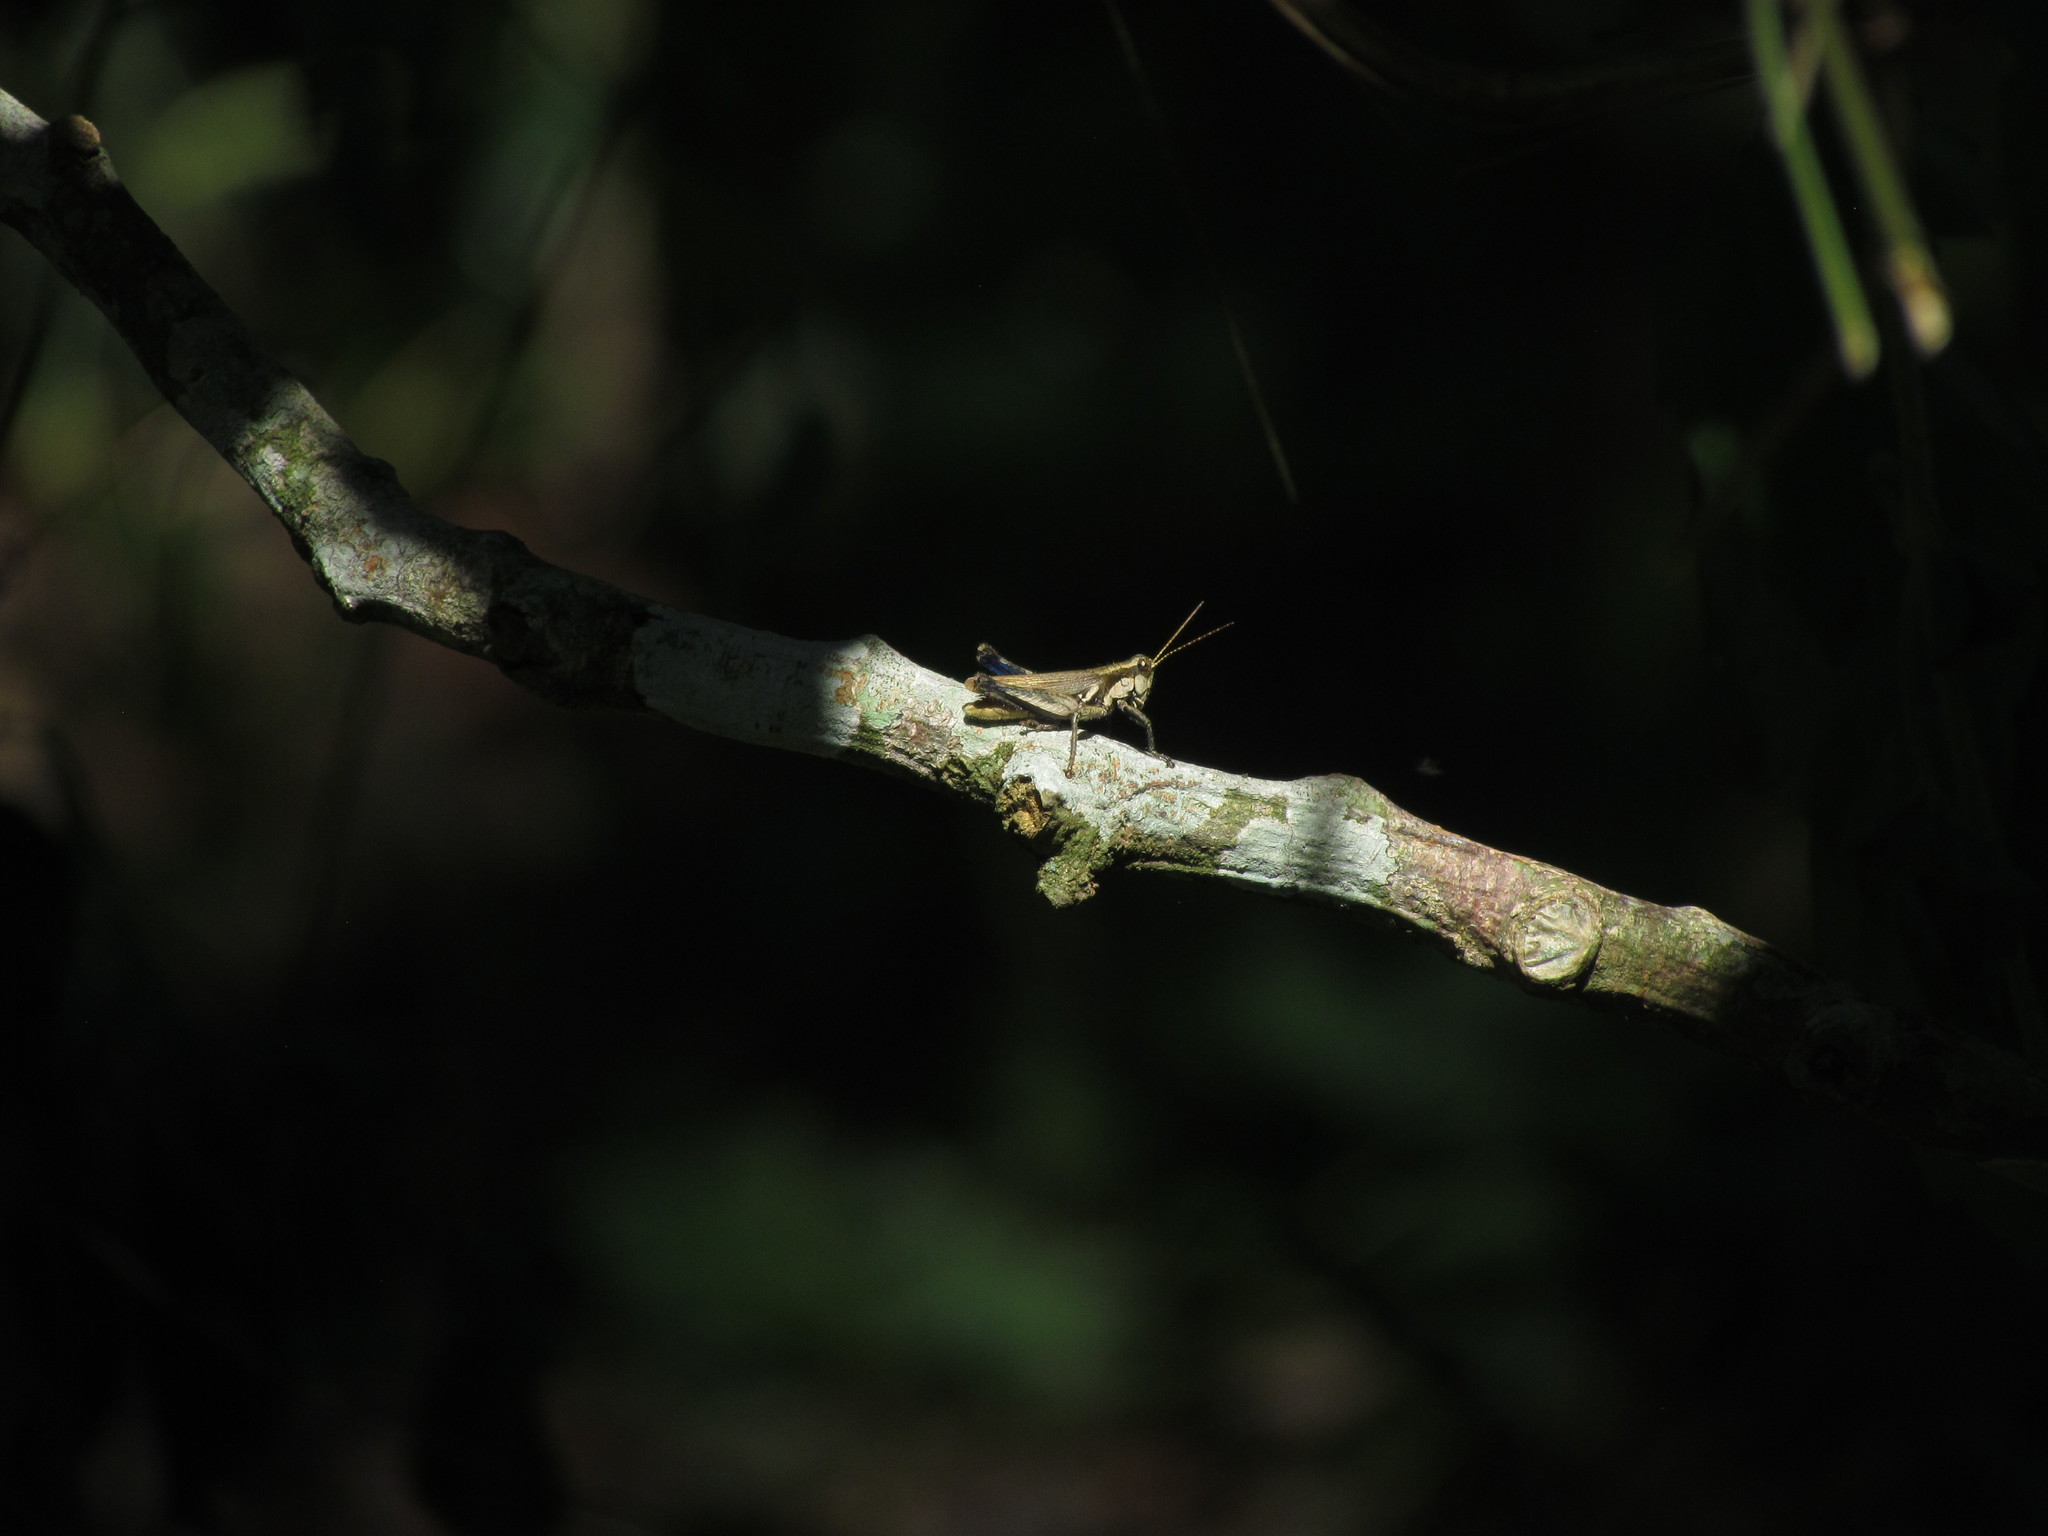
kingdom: Animalia
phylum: Arthropoda
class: Insecta
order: Orthoptera
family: Acrididae
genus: Ronderosia
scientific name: Ronderosia bergii
